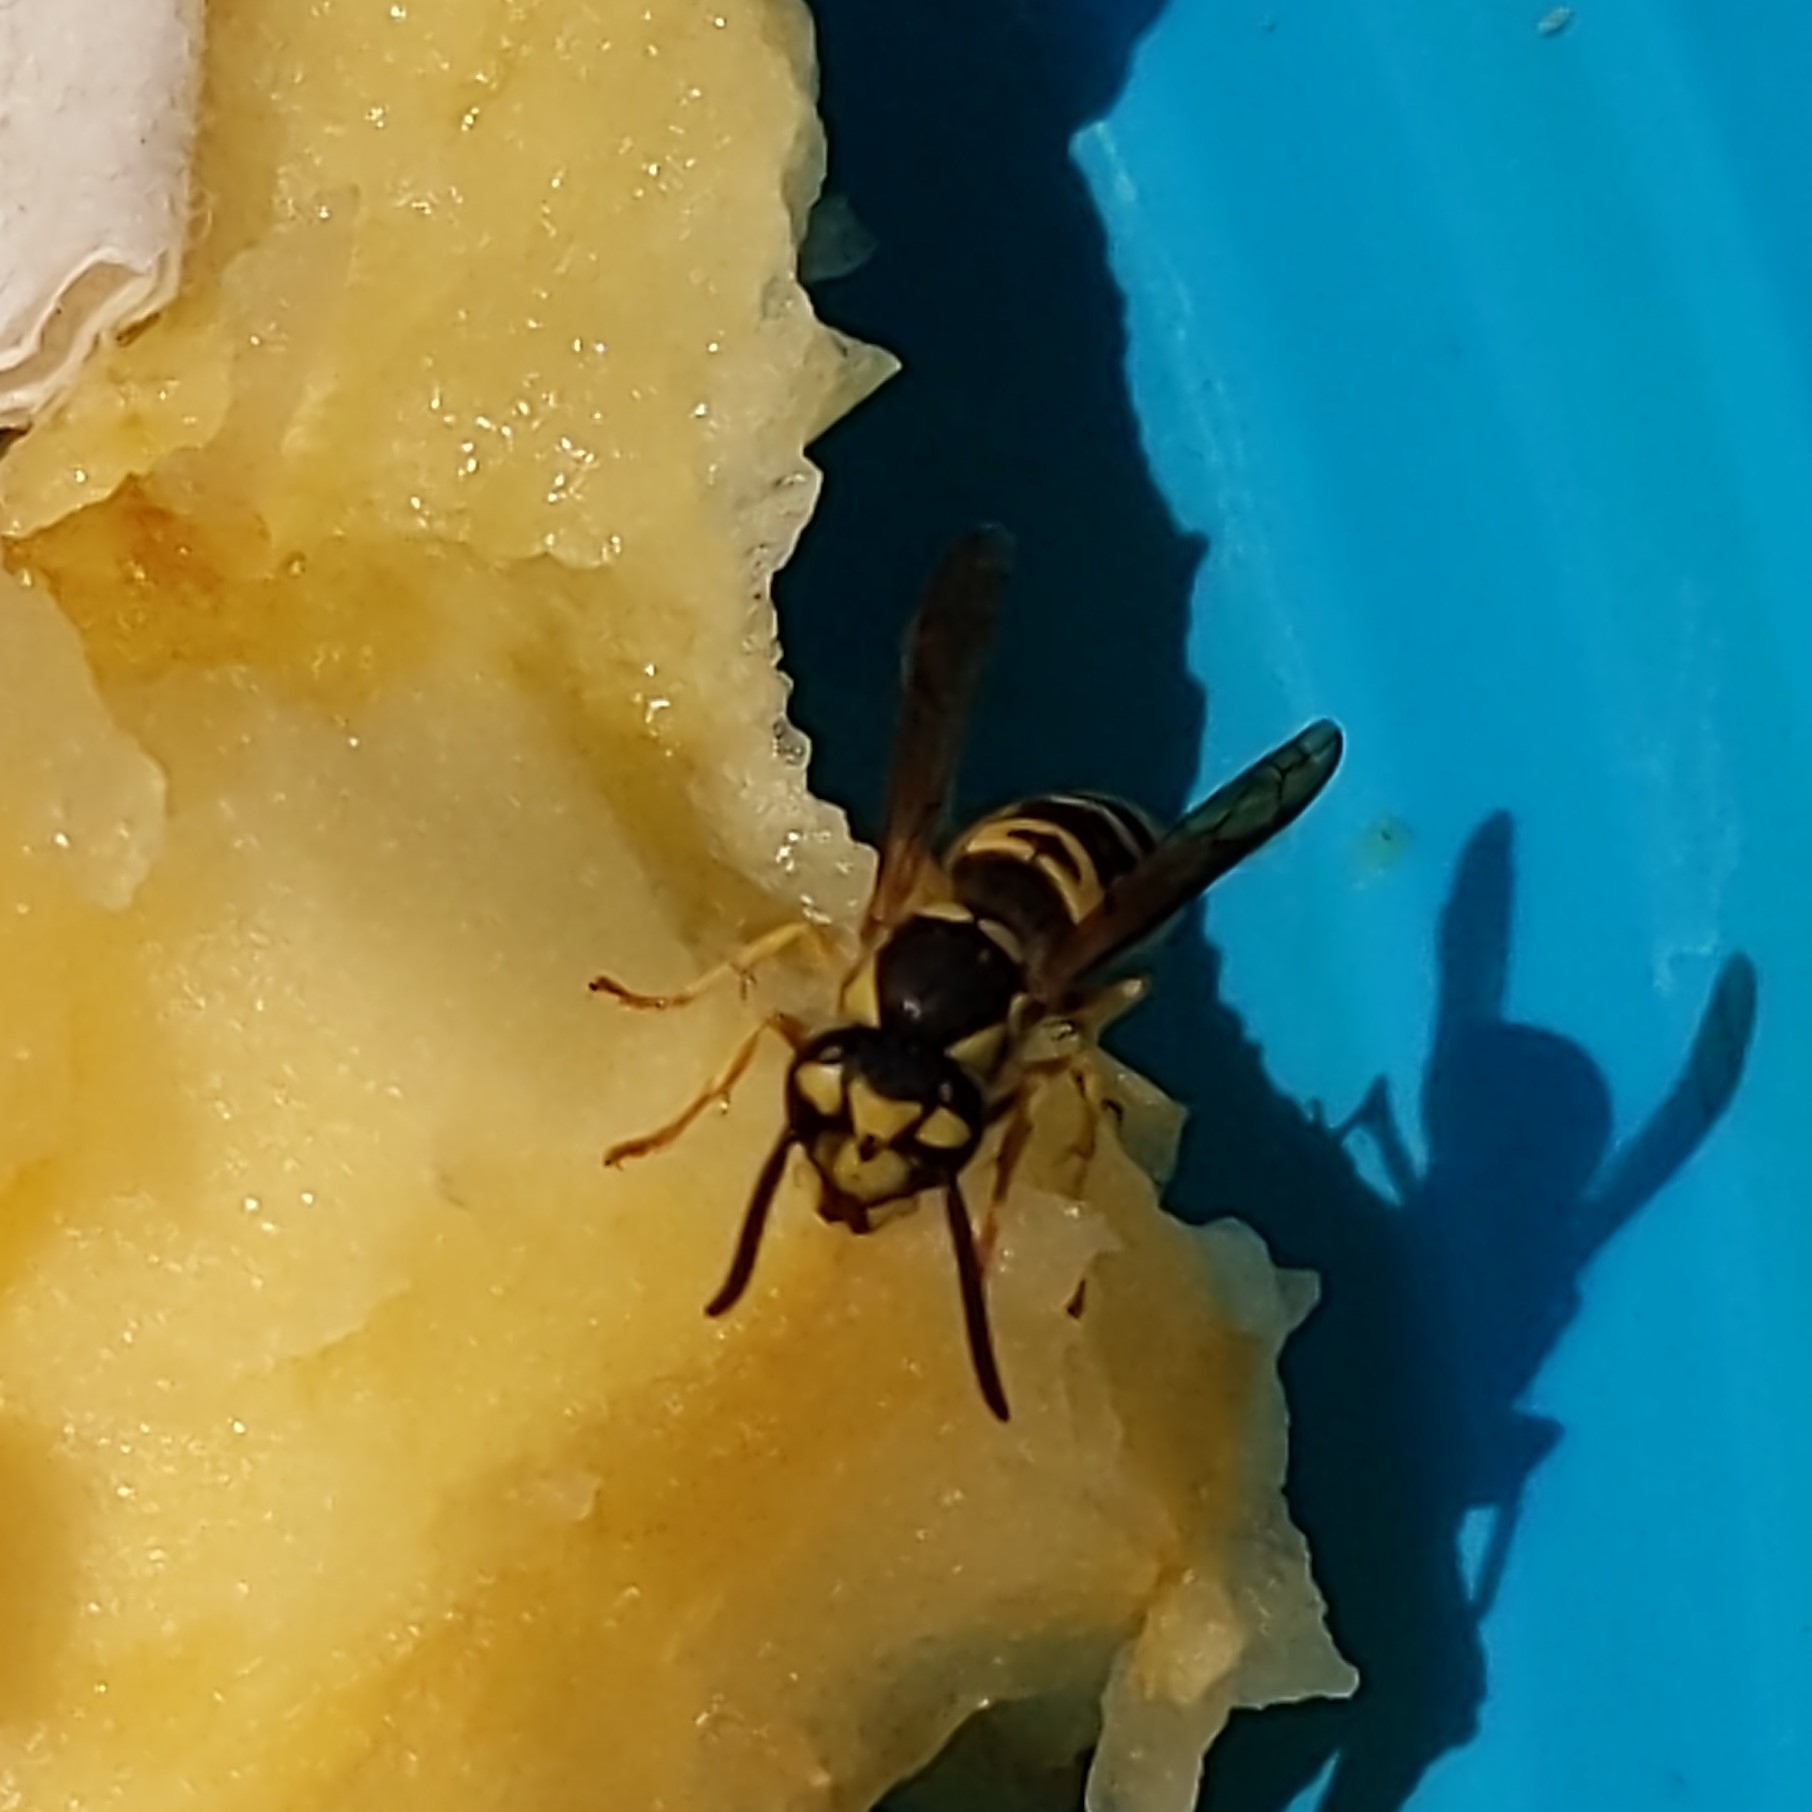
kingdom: Animalia
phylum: Arthropoda
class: Insecta
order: Hymenoptera
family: Vespidae
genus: Vespula
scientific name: Vespula maculifrons
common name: Eastern yellowjacket
